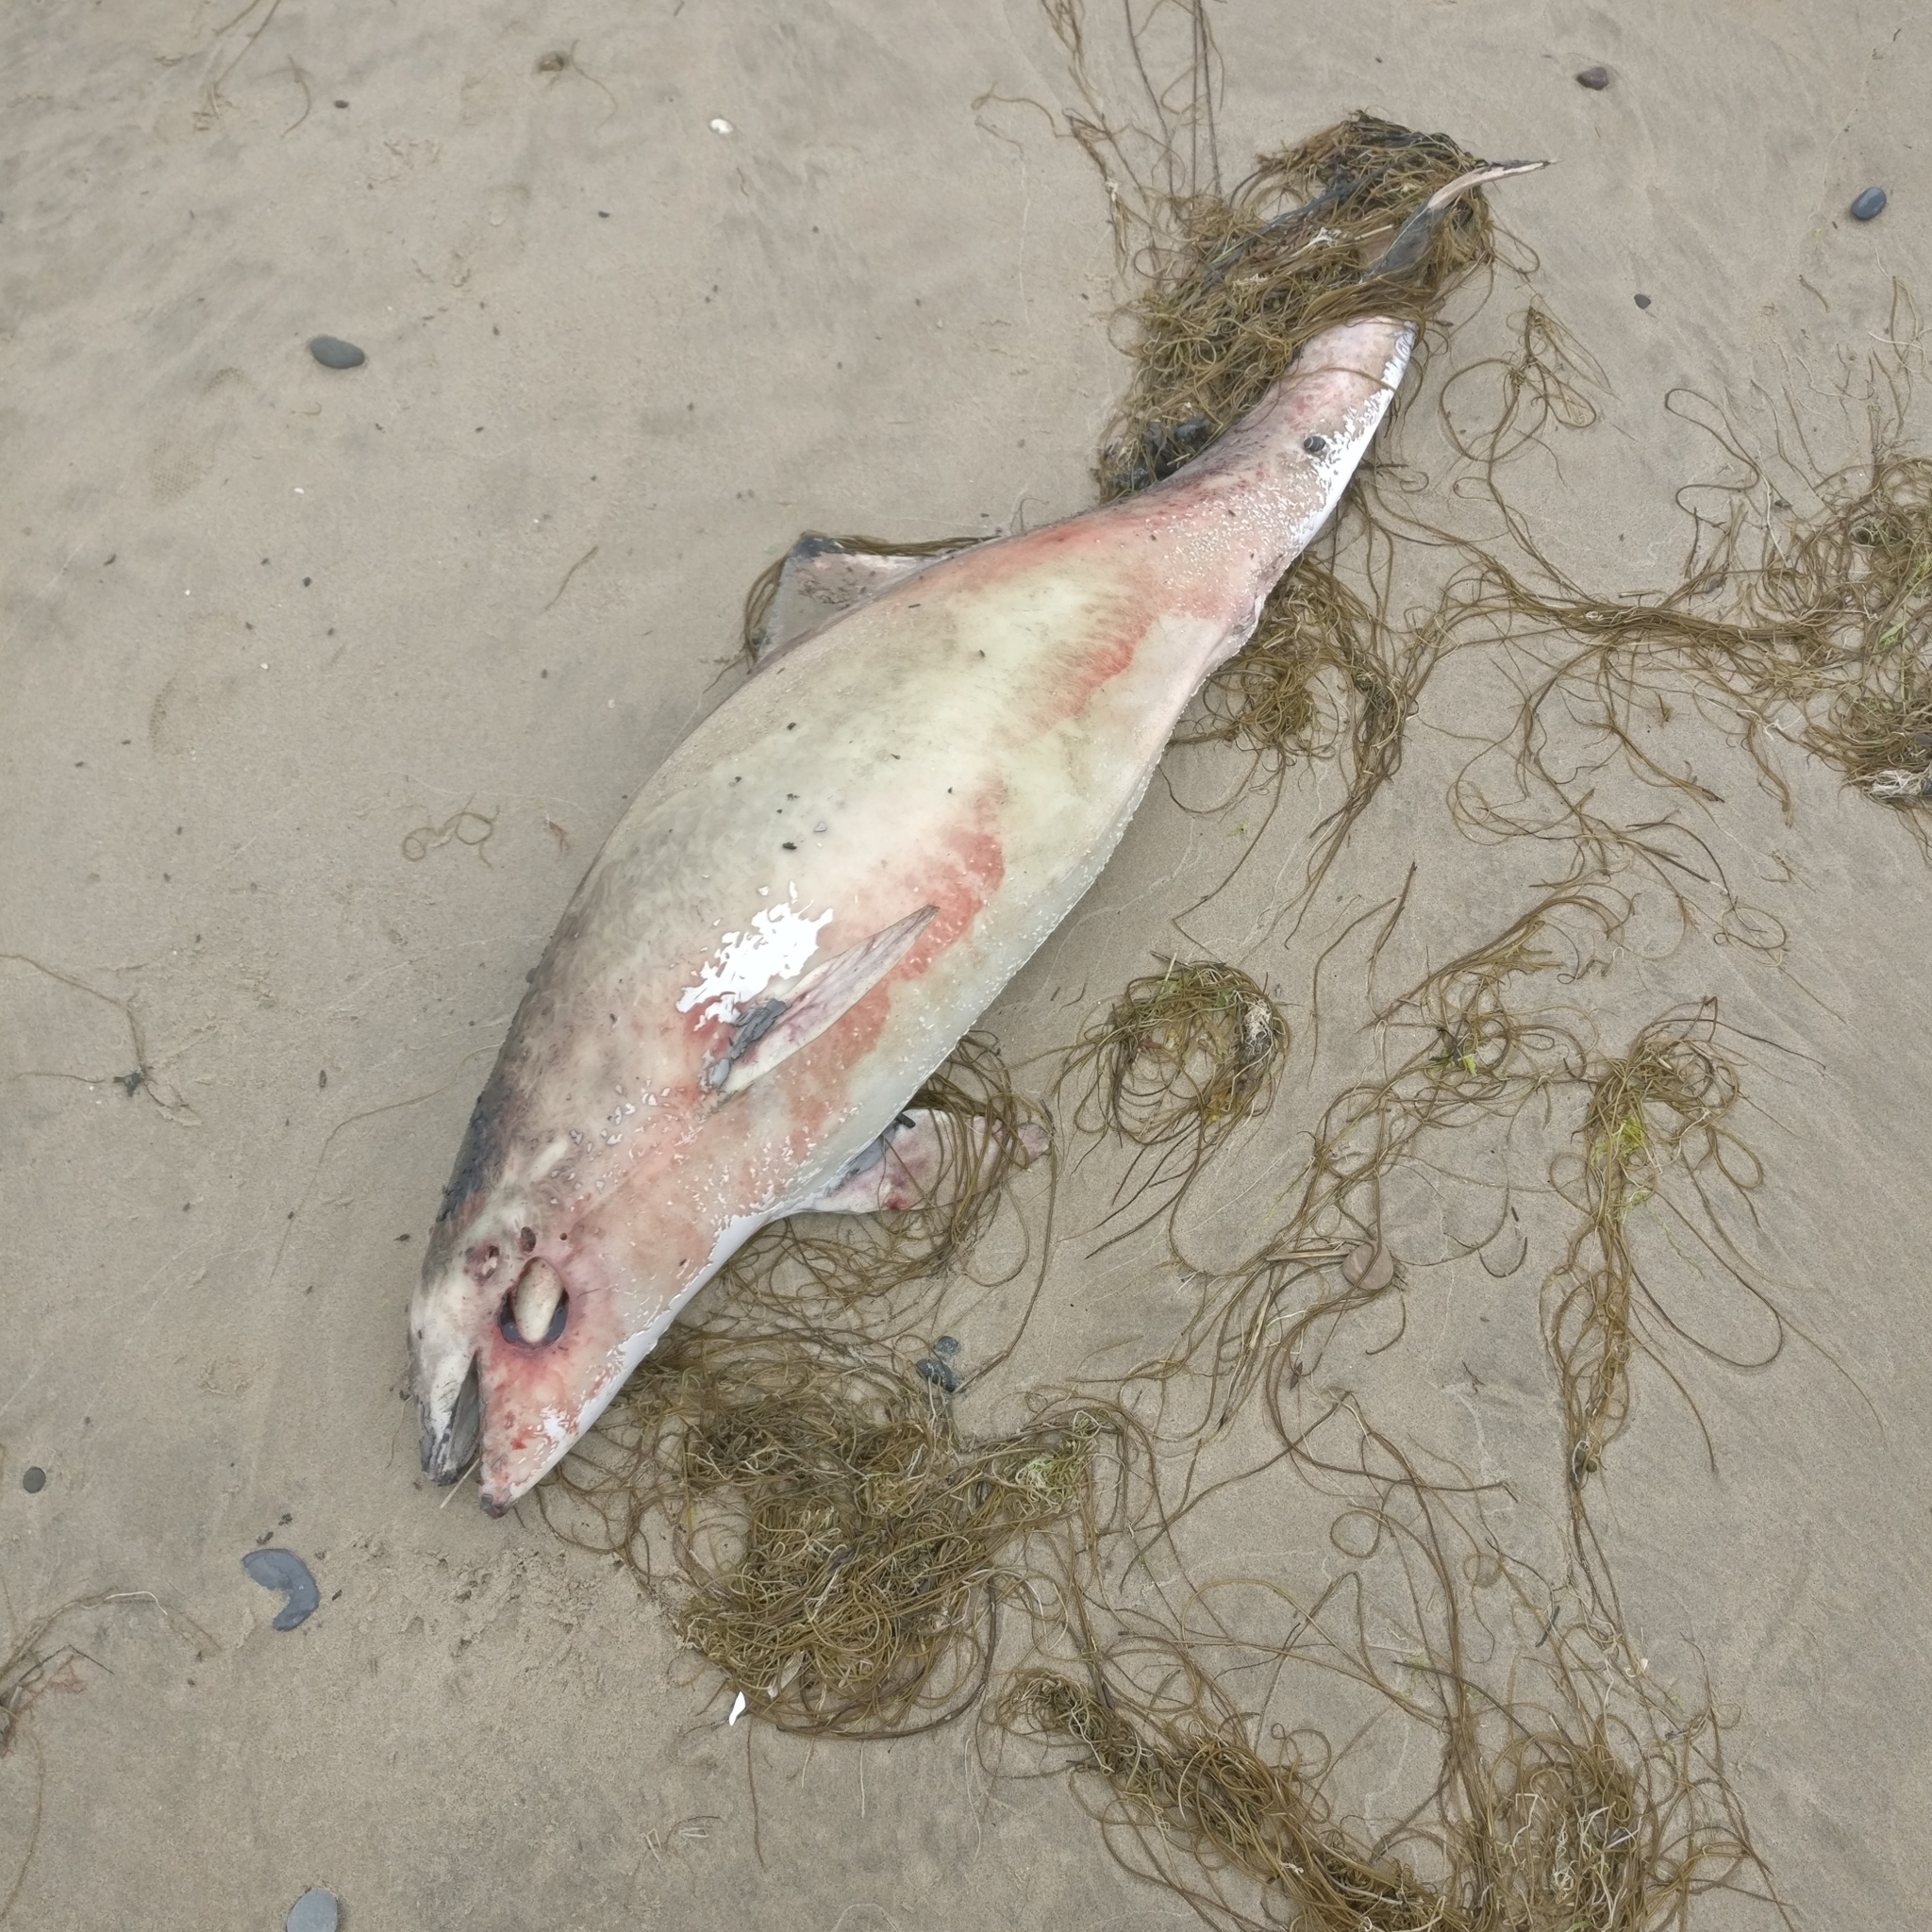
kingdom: Animalia
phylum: Chordata
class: Mammalia
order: Cetacea
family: Phocoenidae
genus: Phocoena
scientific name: Phocoena phocoena
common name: Harbor porpoise
